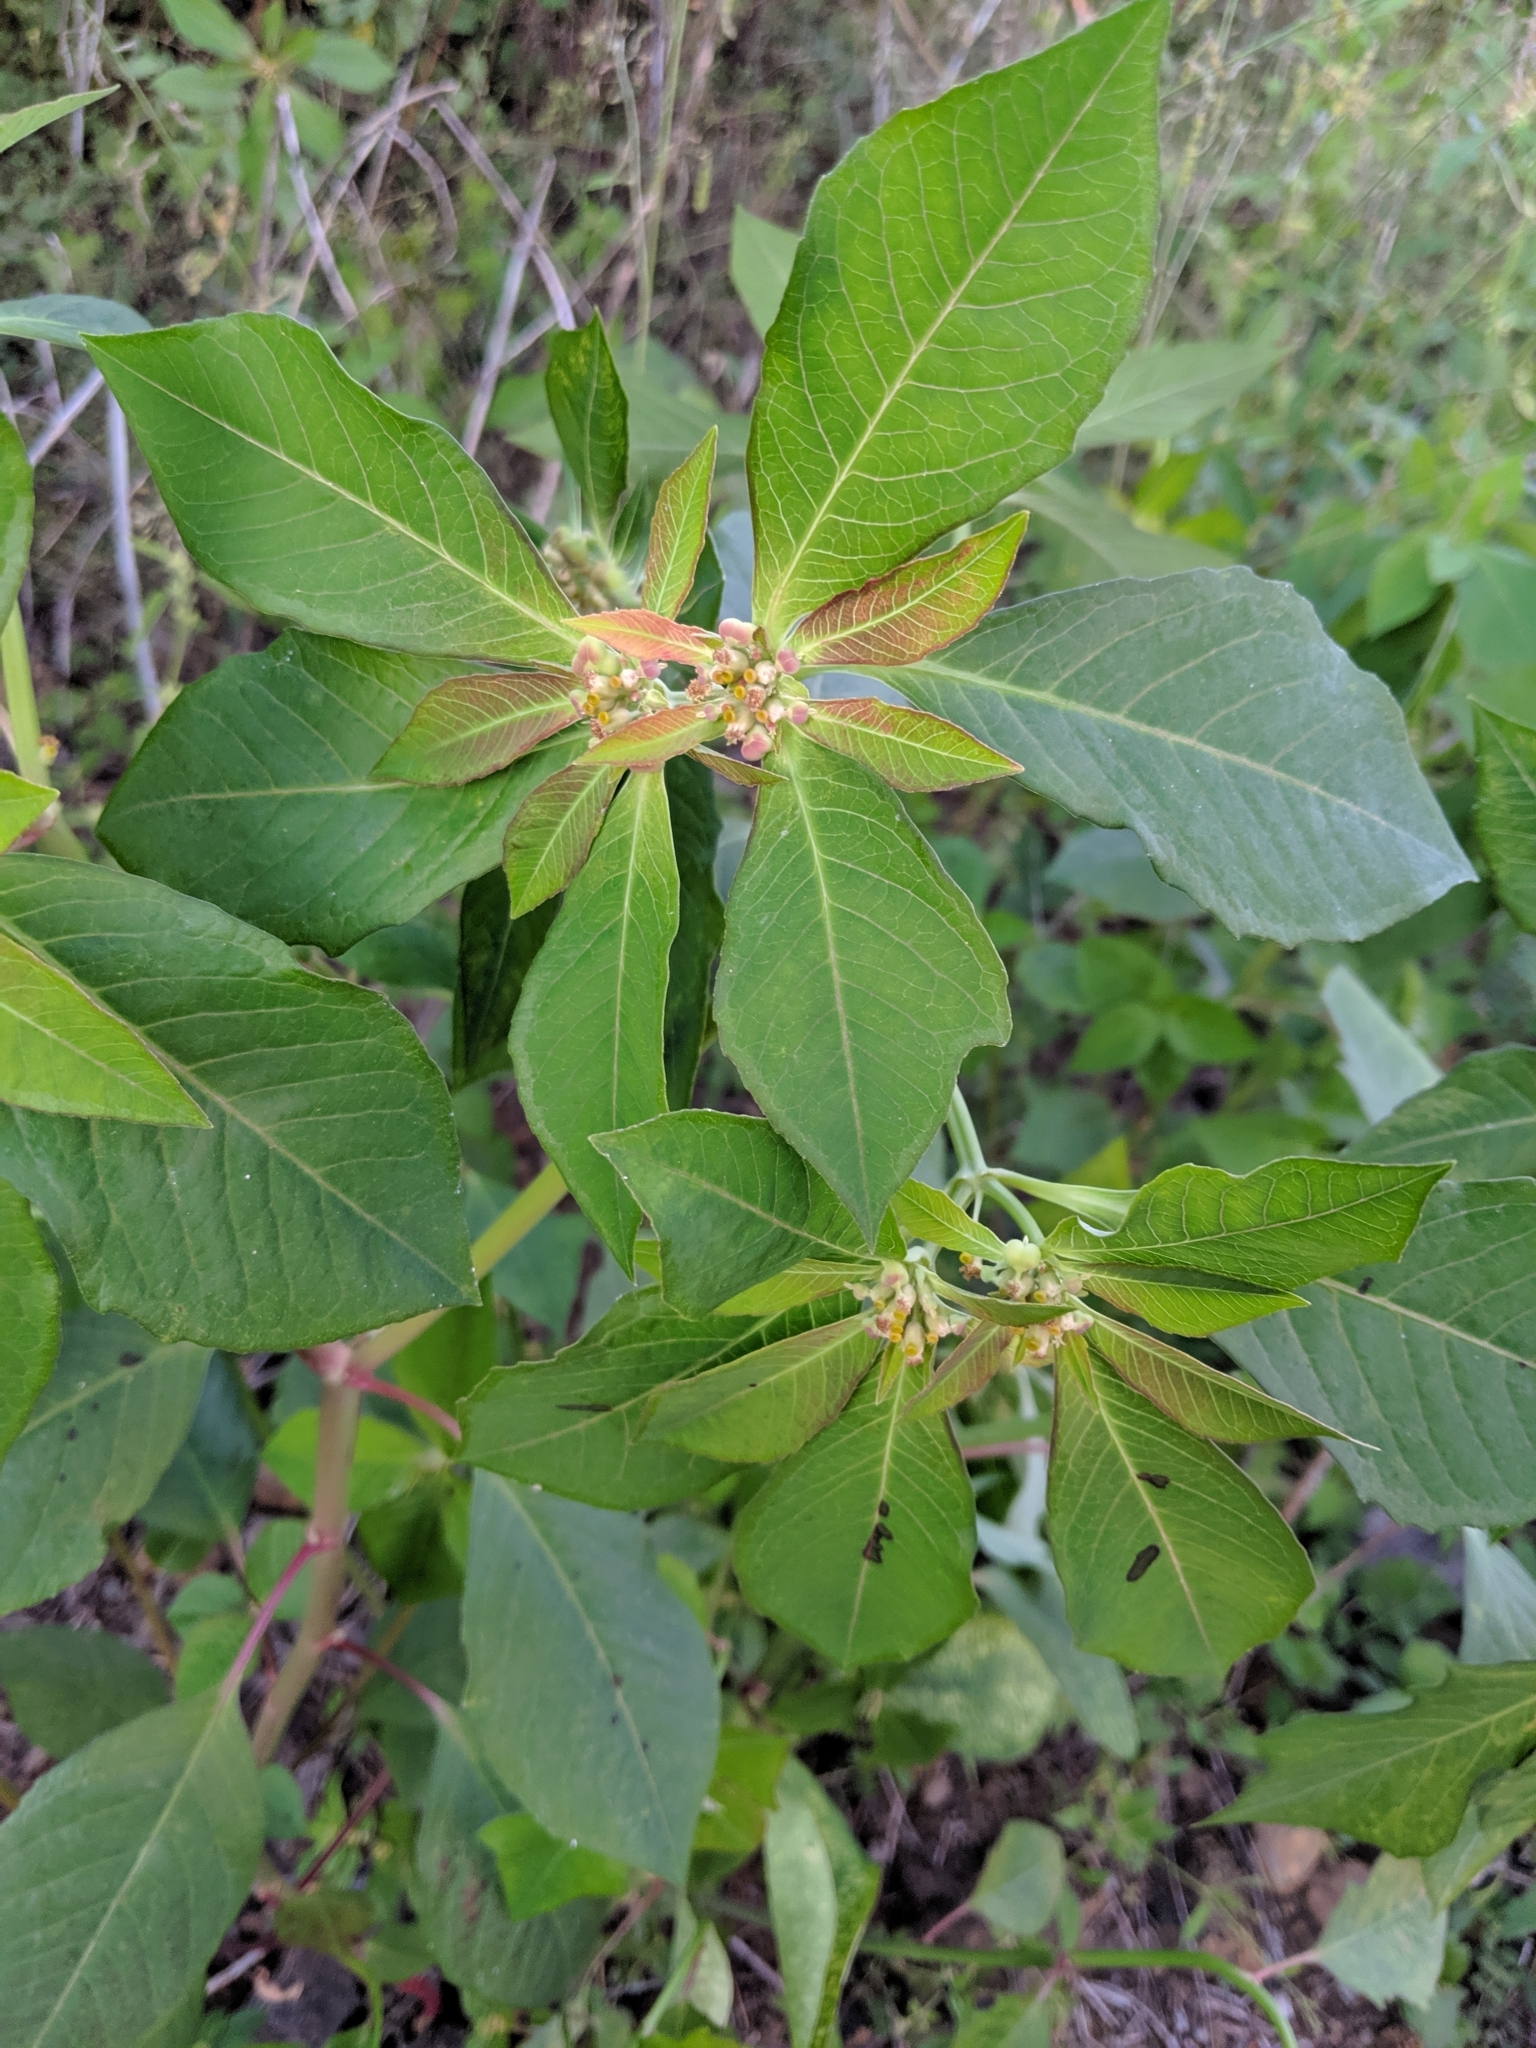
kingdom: Plantae
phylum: Tracheophyta
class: Magnoliopsida
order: Malpighiales
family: Euphorbiaceae
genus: Euphorbia
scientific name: Euphorbia heterophylla
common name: Mexican fireplant
